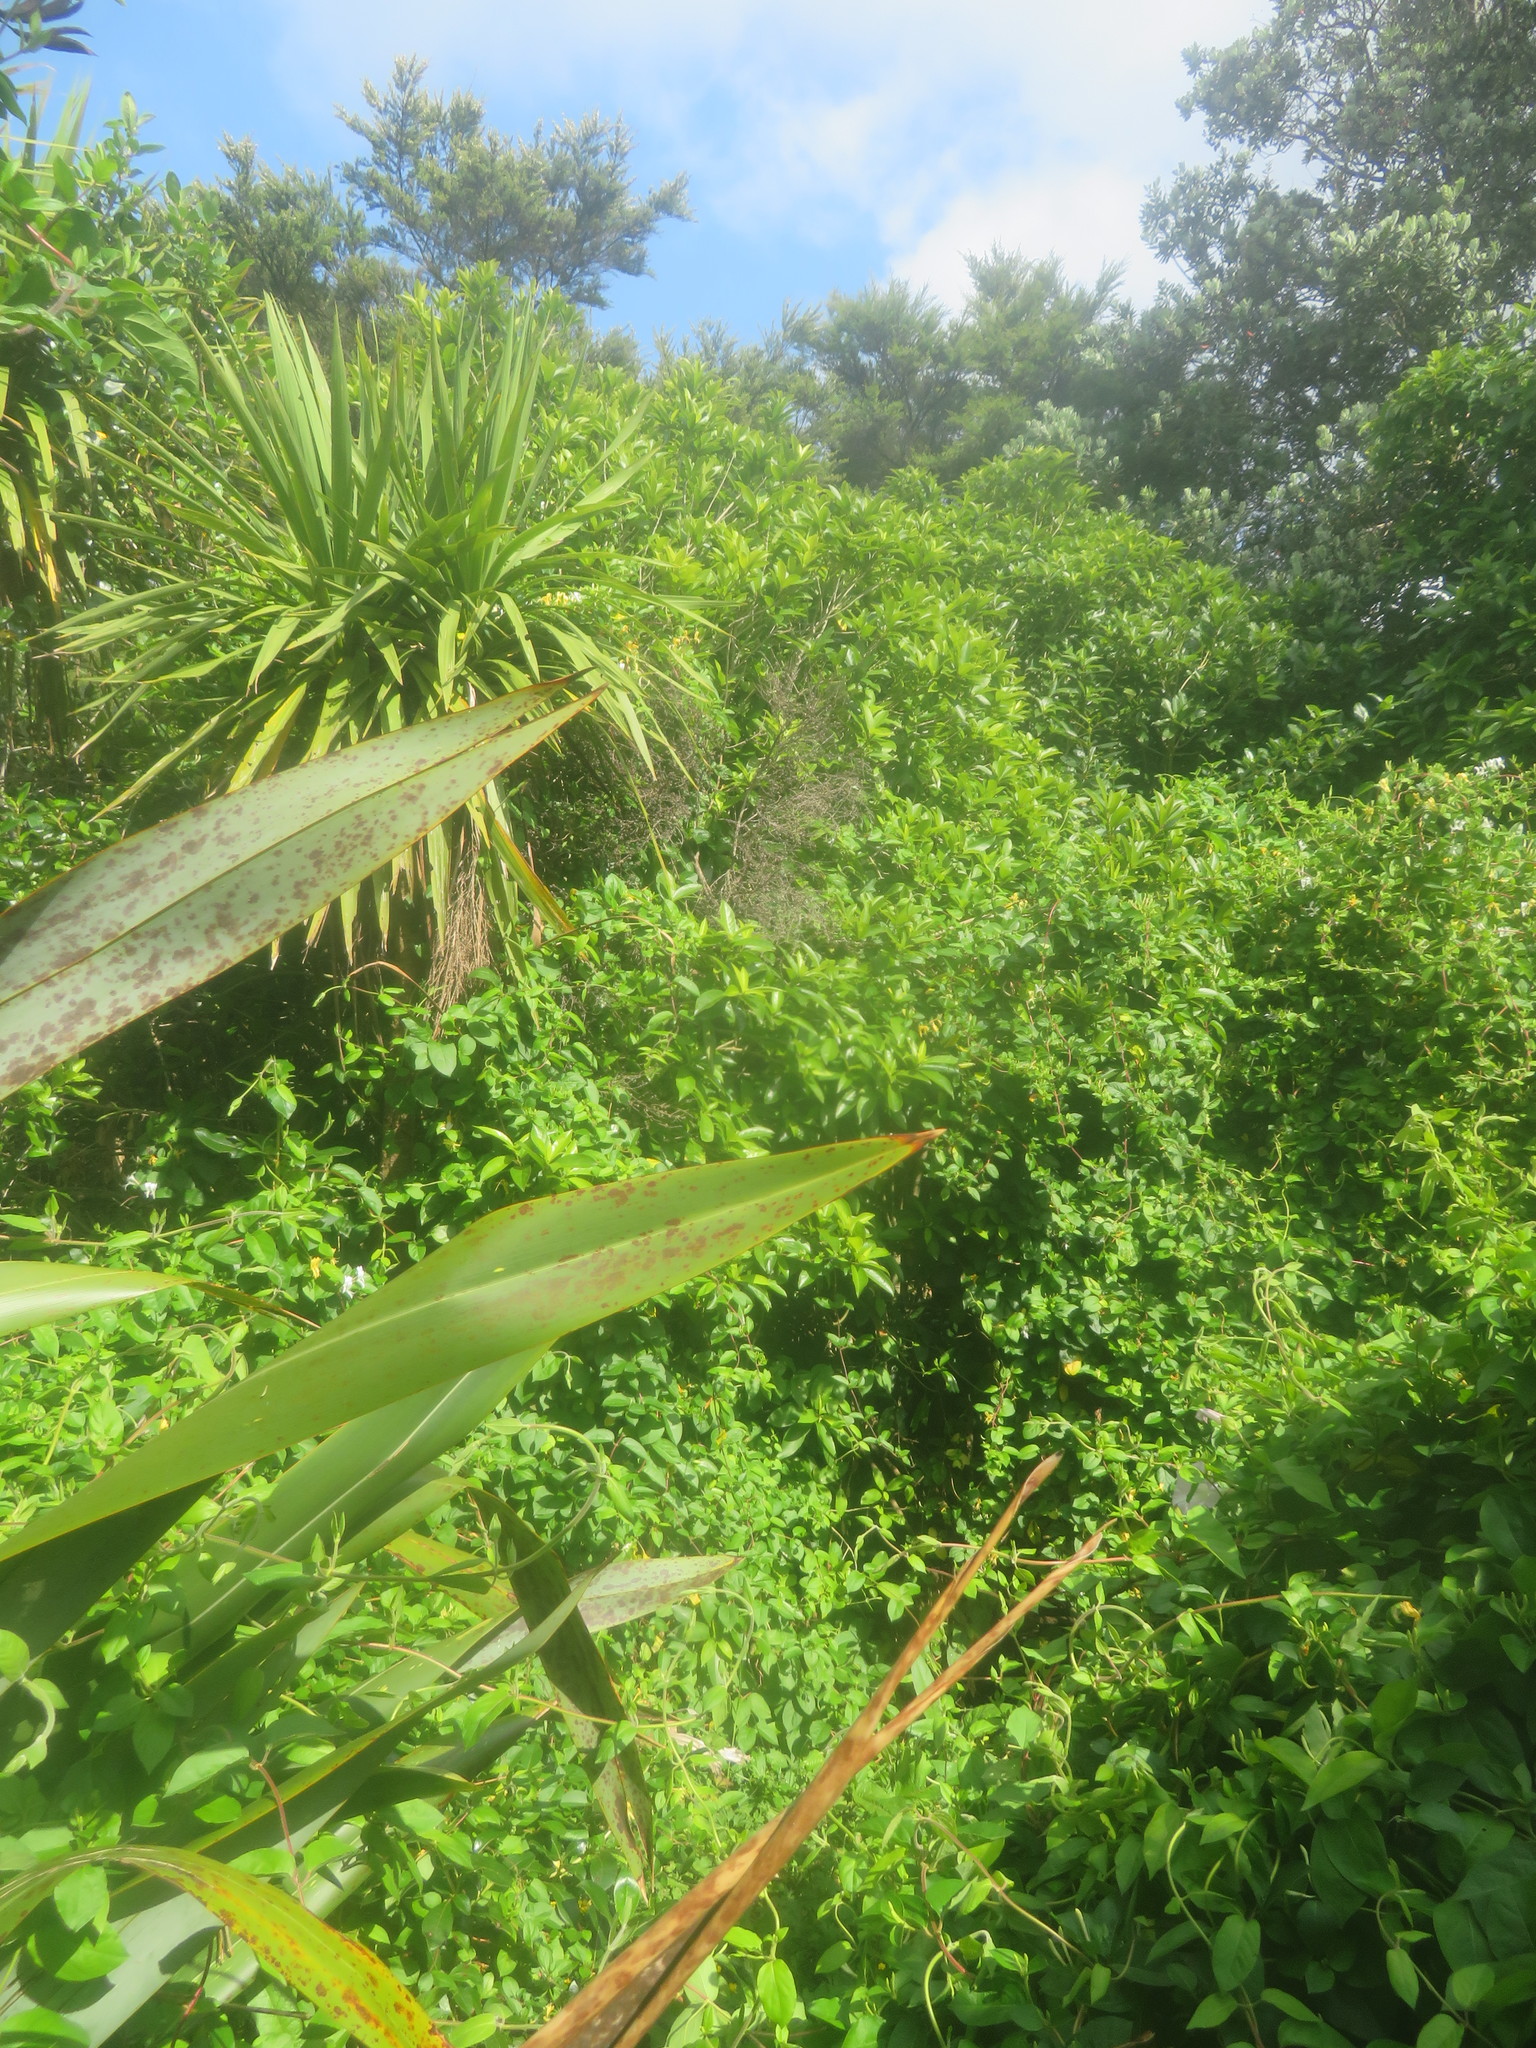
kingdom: Plantae
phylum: Tracheophyta
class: Liliopsida
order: Asparagales
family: Asparagaceae
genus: Cordyline
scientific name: Cordyline australis
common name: Cabbage-palm
